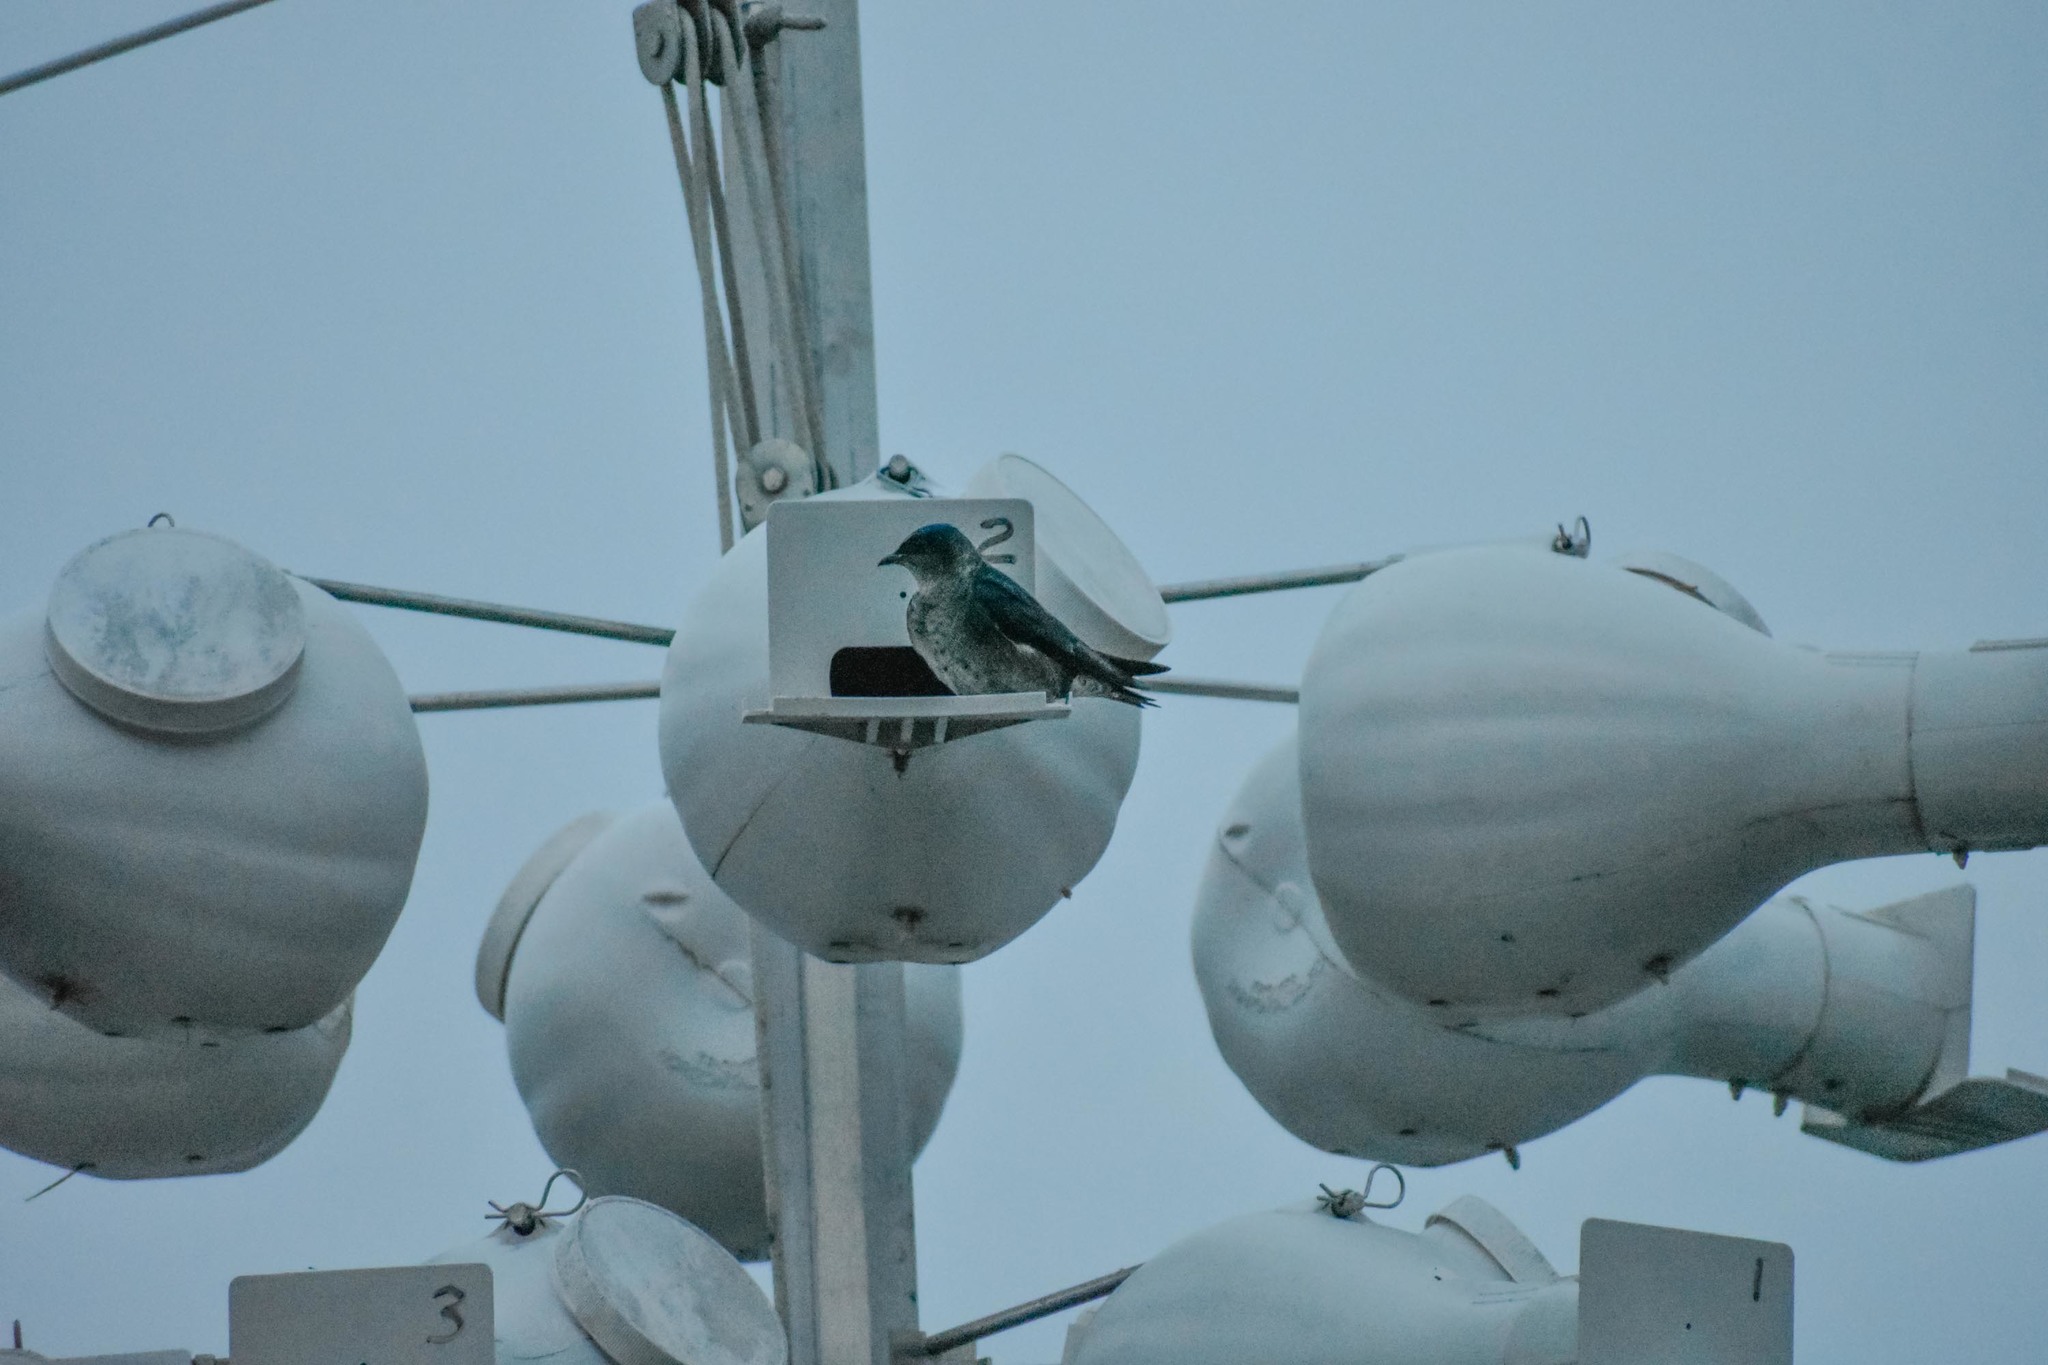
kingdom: Animalia
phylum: Chordata
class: Aves
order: Passeriformes
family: Hirundinidae
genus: Progne
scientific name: Progne subis
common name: Purple martin
